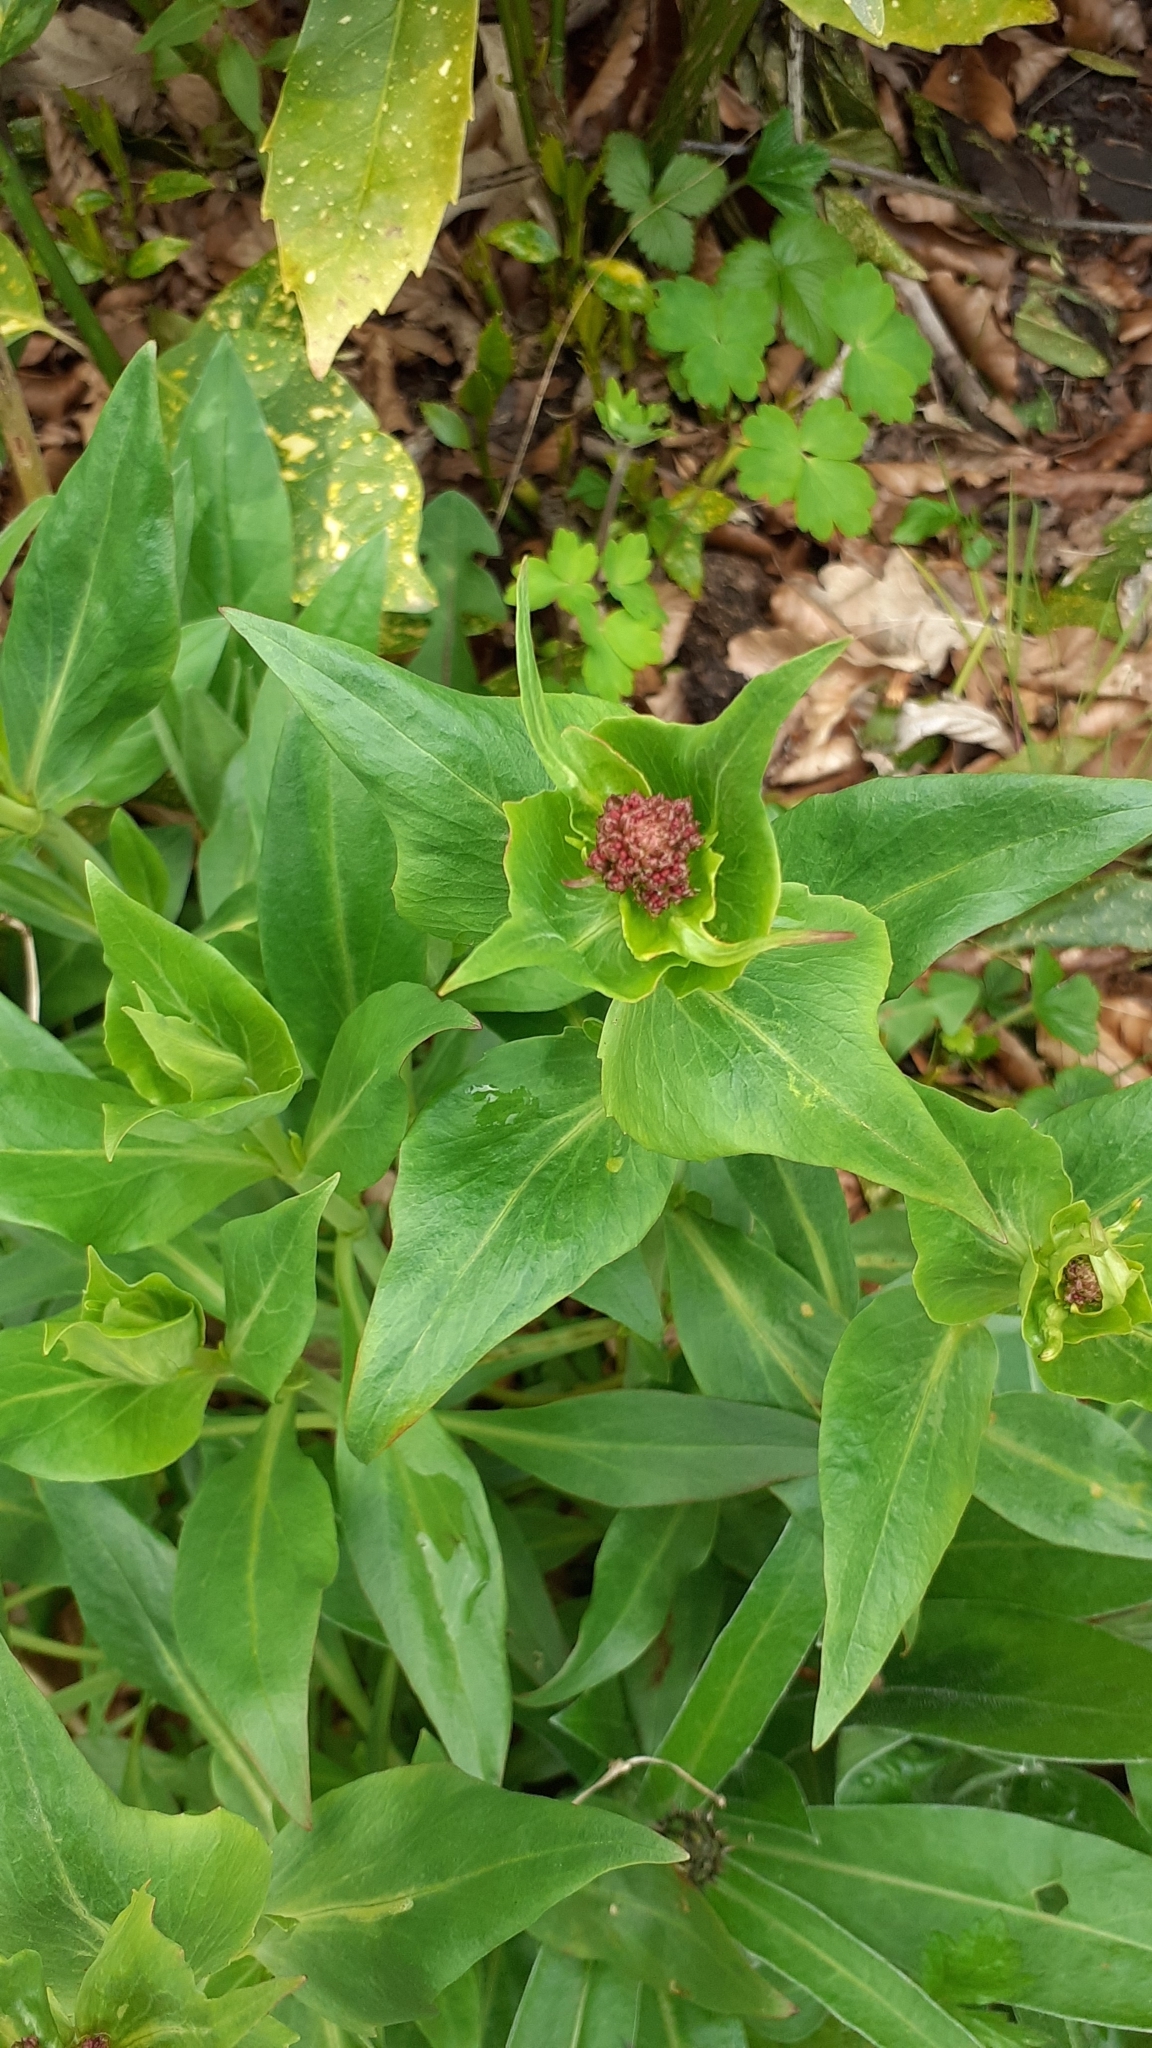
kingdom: Plantae
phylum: Tracheophyta
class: Magnoliopsida
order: Dipsacales
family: Caprifoliaceae
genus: Centranthus
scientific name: Centranthus ruber
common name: Red valerian
